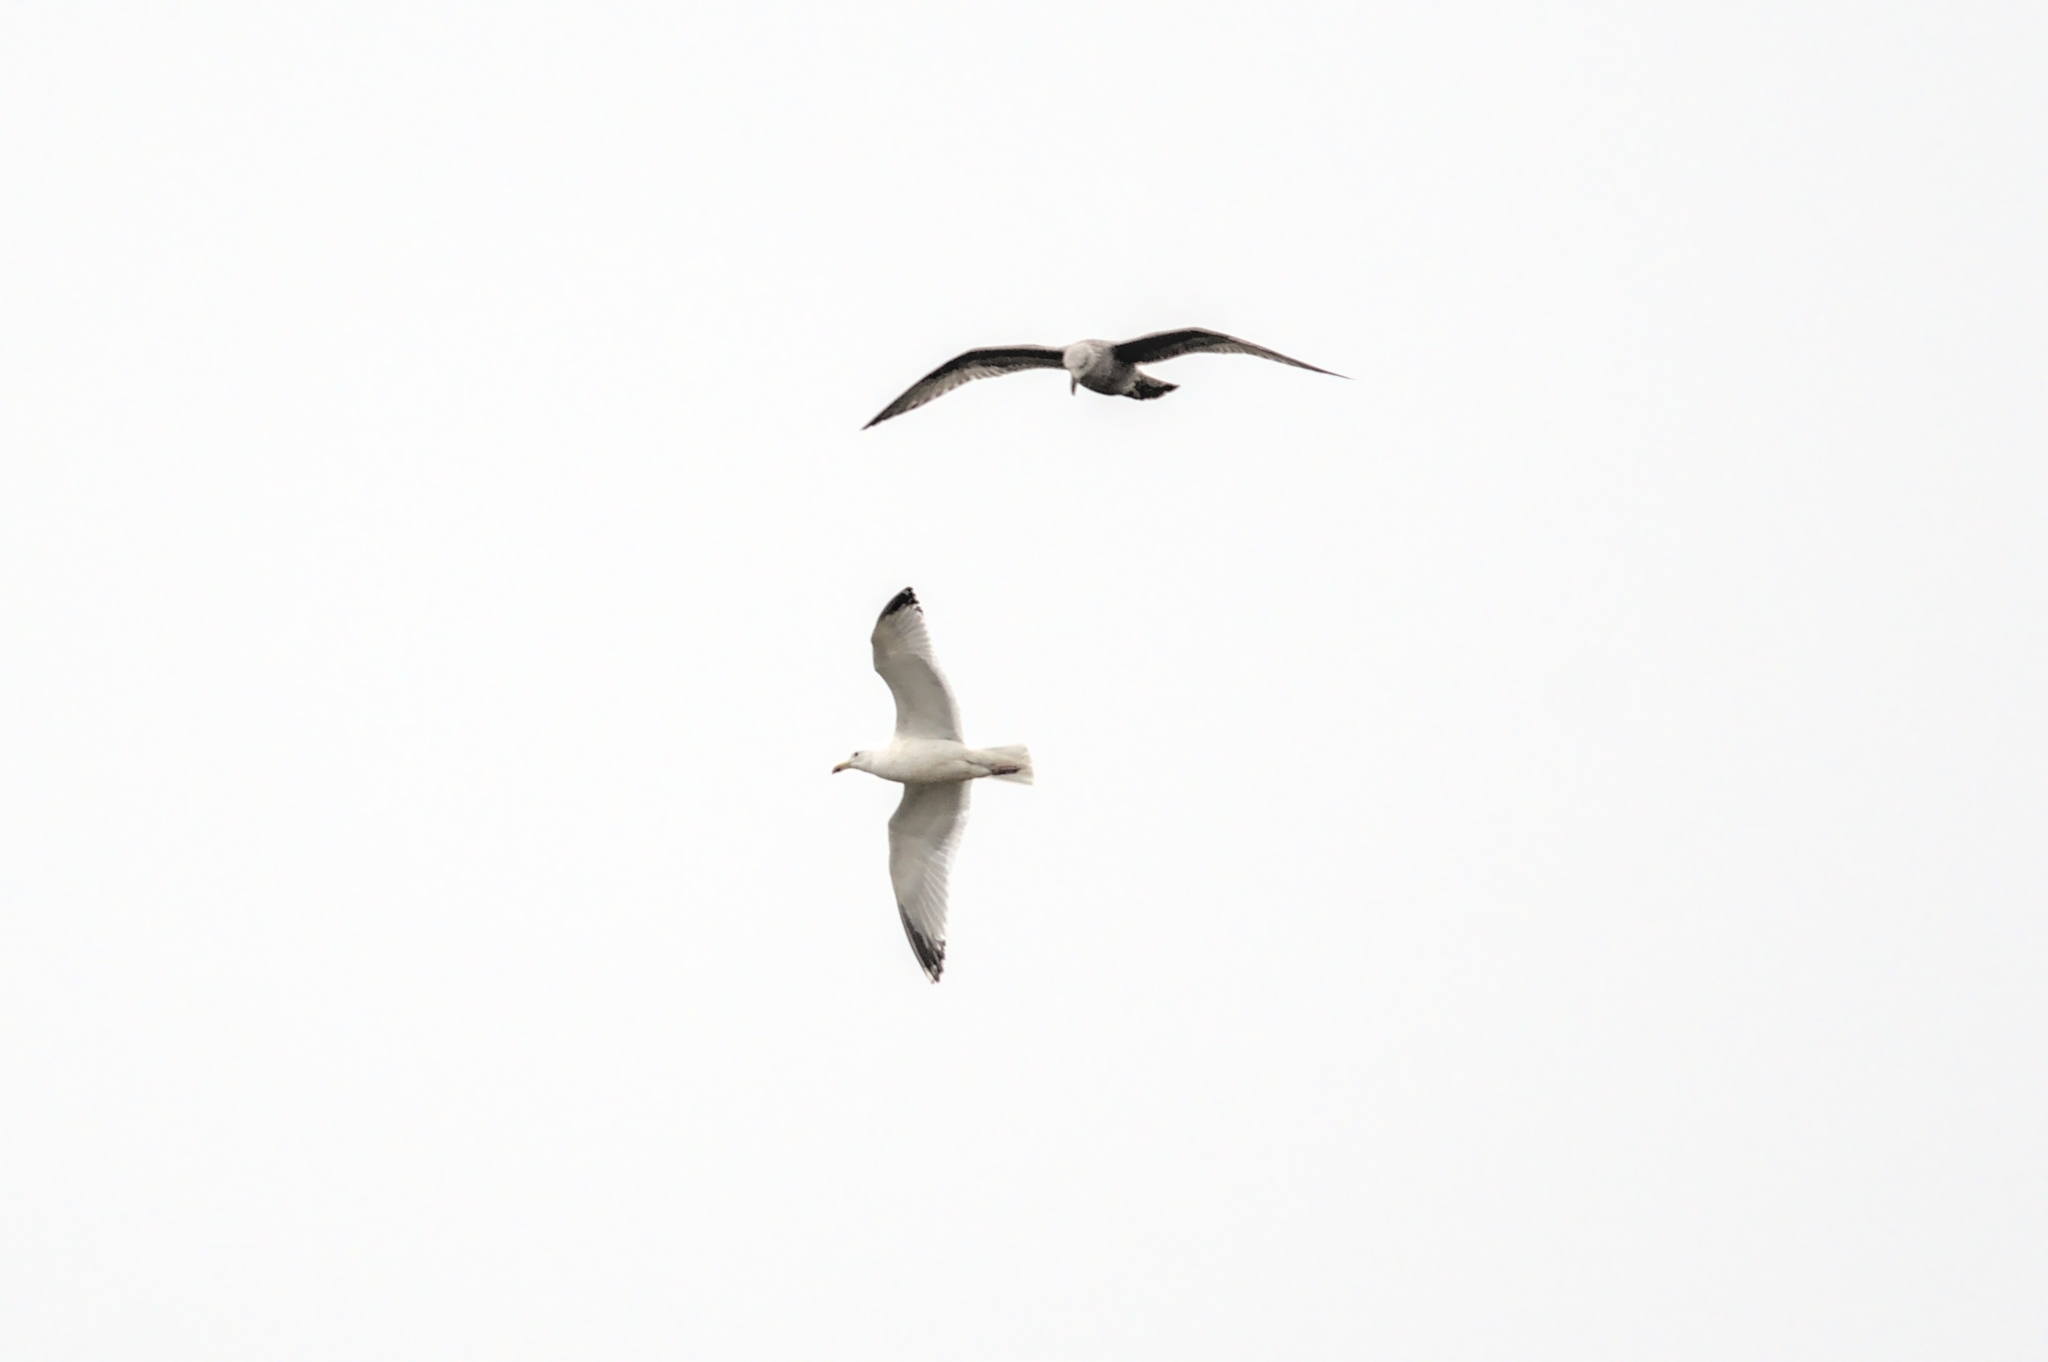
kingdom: Animalia
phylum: Chordata
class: Aves
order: Charadriiformes
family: Laridae
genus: Larus
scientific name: Larus argentatus
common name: Herring gull
